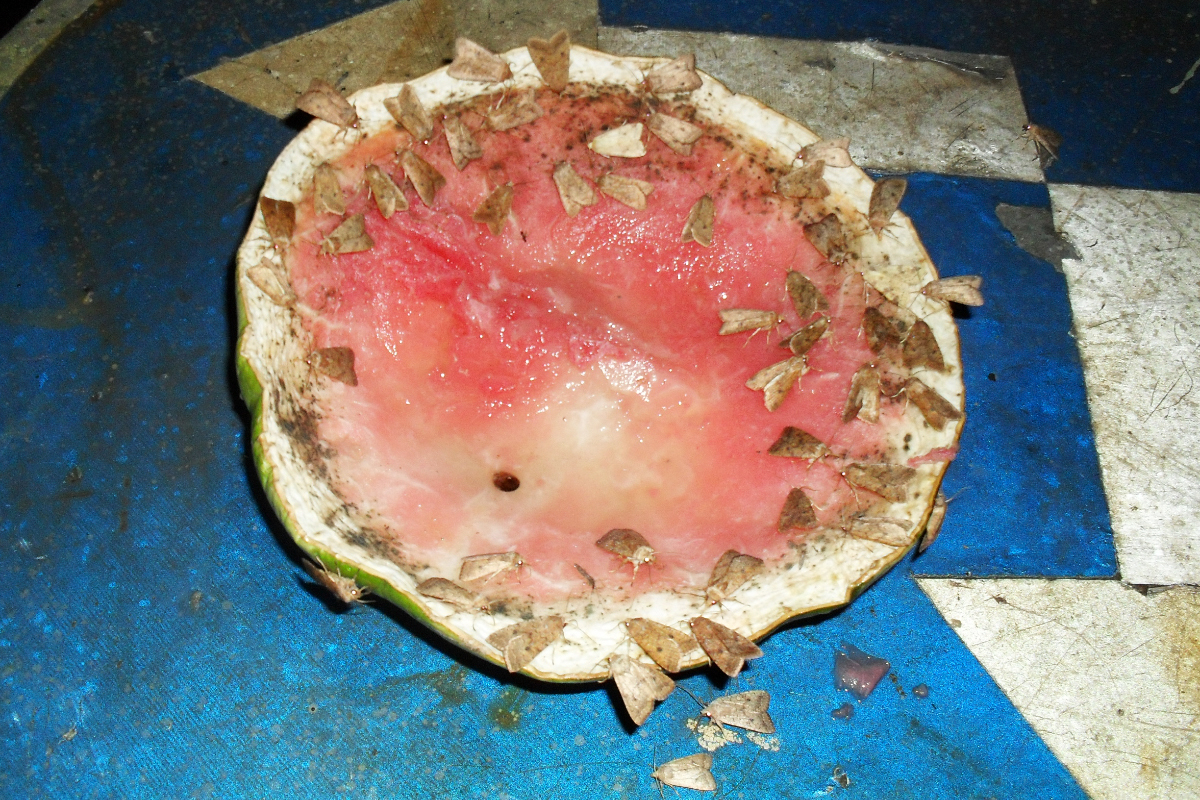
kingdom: Animalia
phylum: Arthropoda
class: Insecta
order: Lepidoptera
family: Noctuidae
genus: Sunira
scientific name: Sunira circellaris
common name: Brick
